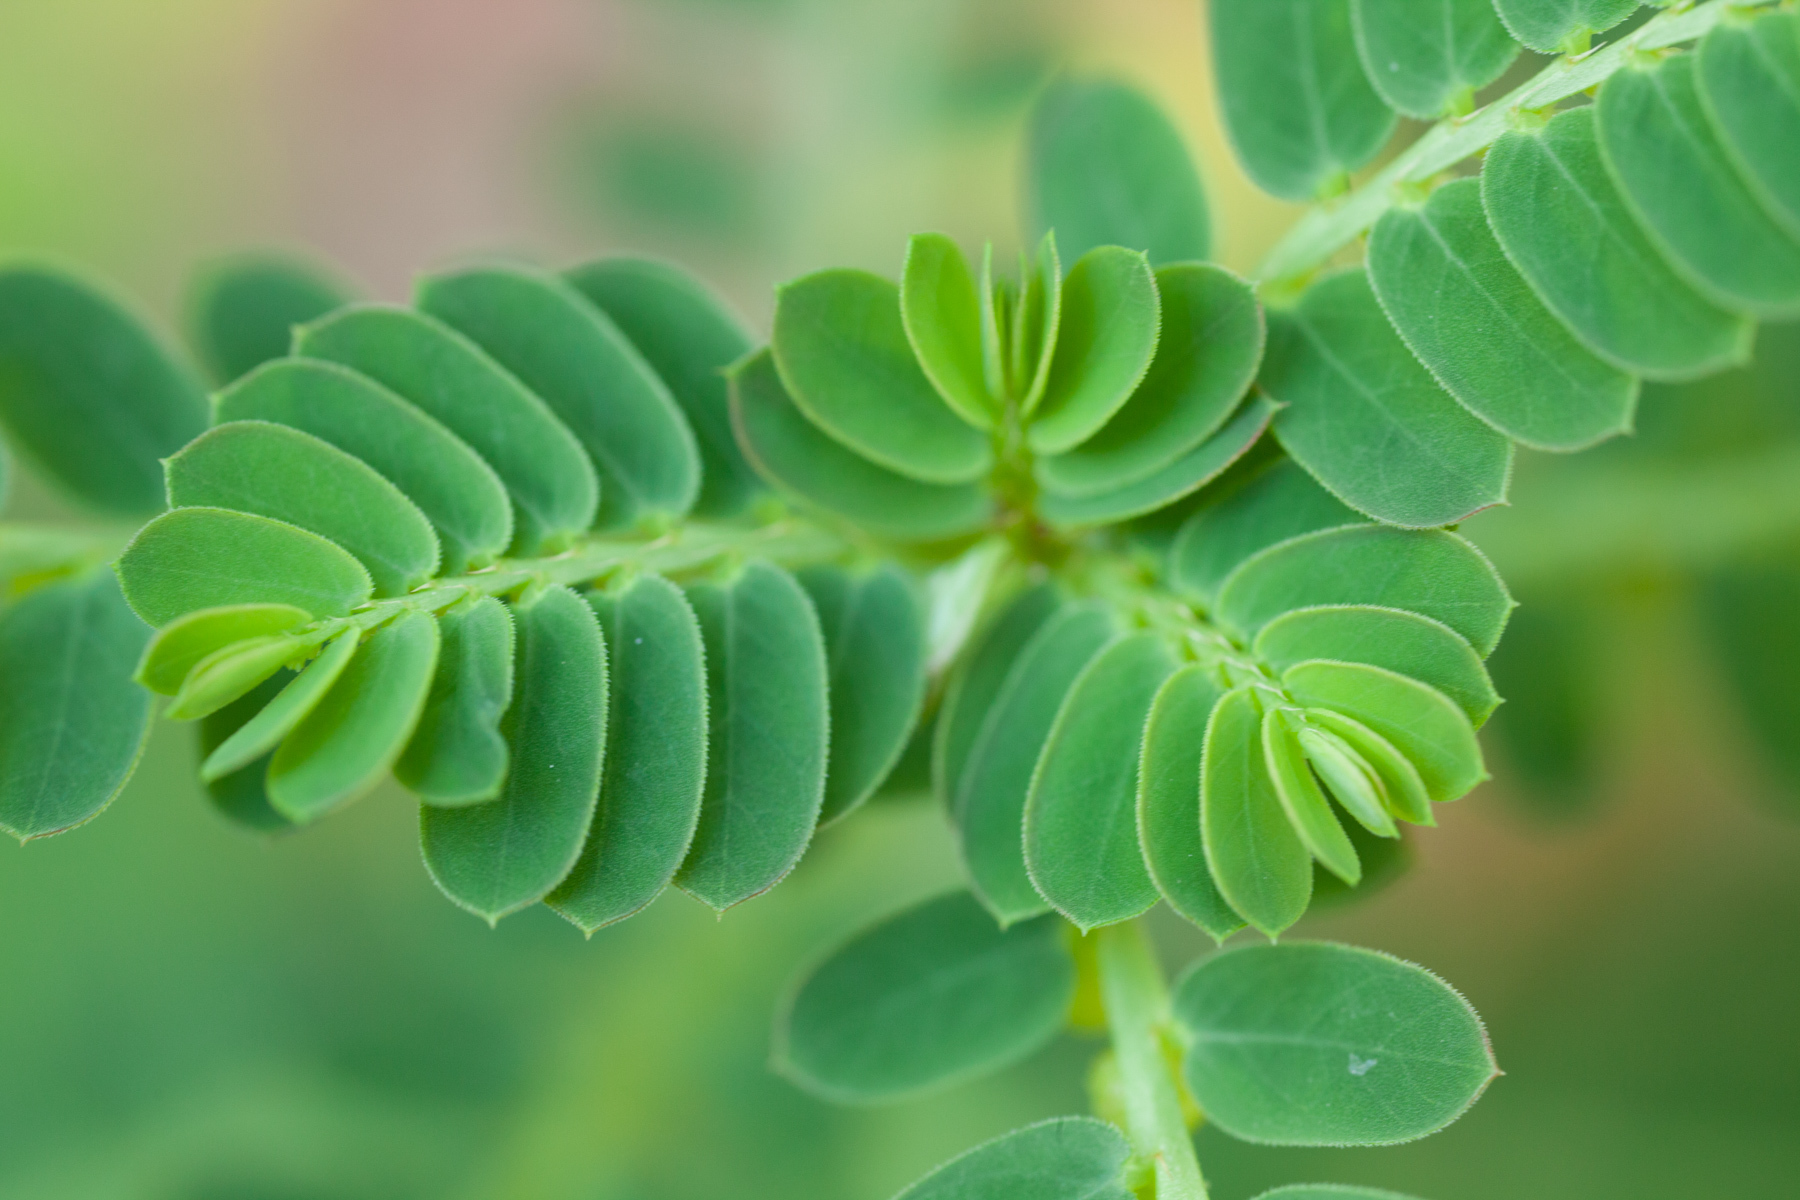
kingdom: Plantae
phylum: Tracheophyta
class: Magnoliopsida
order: Malpighiales
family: Phyllanthaceae
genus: Phyllanthus
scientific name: Phyllanthus urinaria
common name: Chamber bitter
